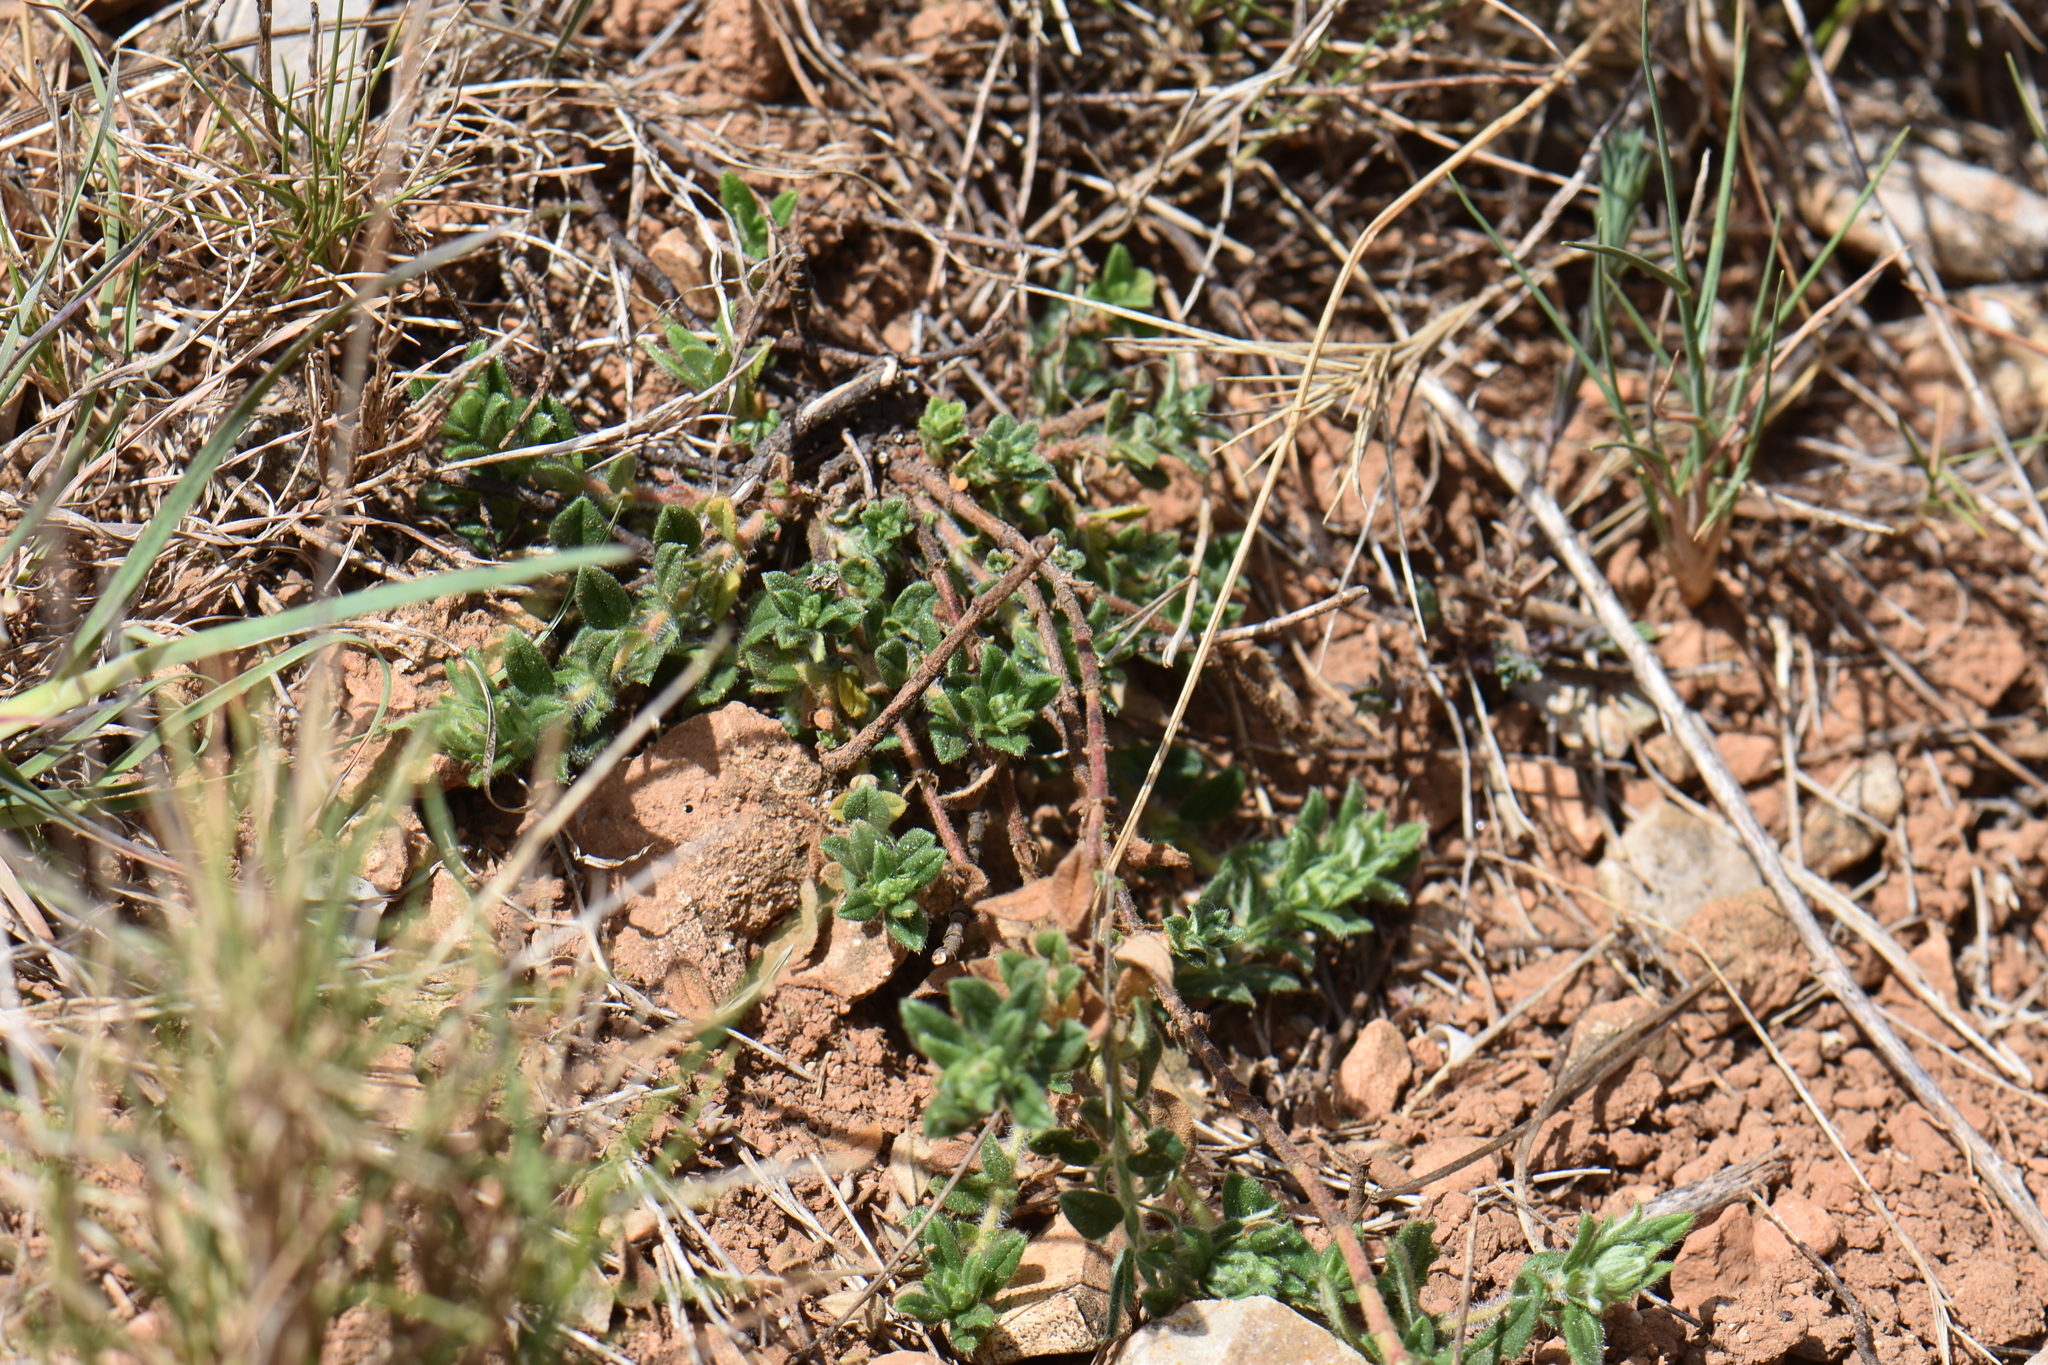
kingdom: Plantae
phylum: Tracheophyta
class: Magnoliopsida
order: Malvales
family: Cistaceae
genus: Helianthemum
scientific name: Helianthemum nummularium
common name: Common rock-rose
